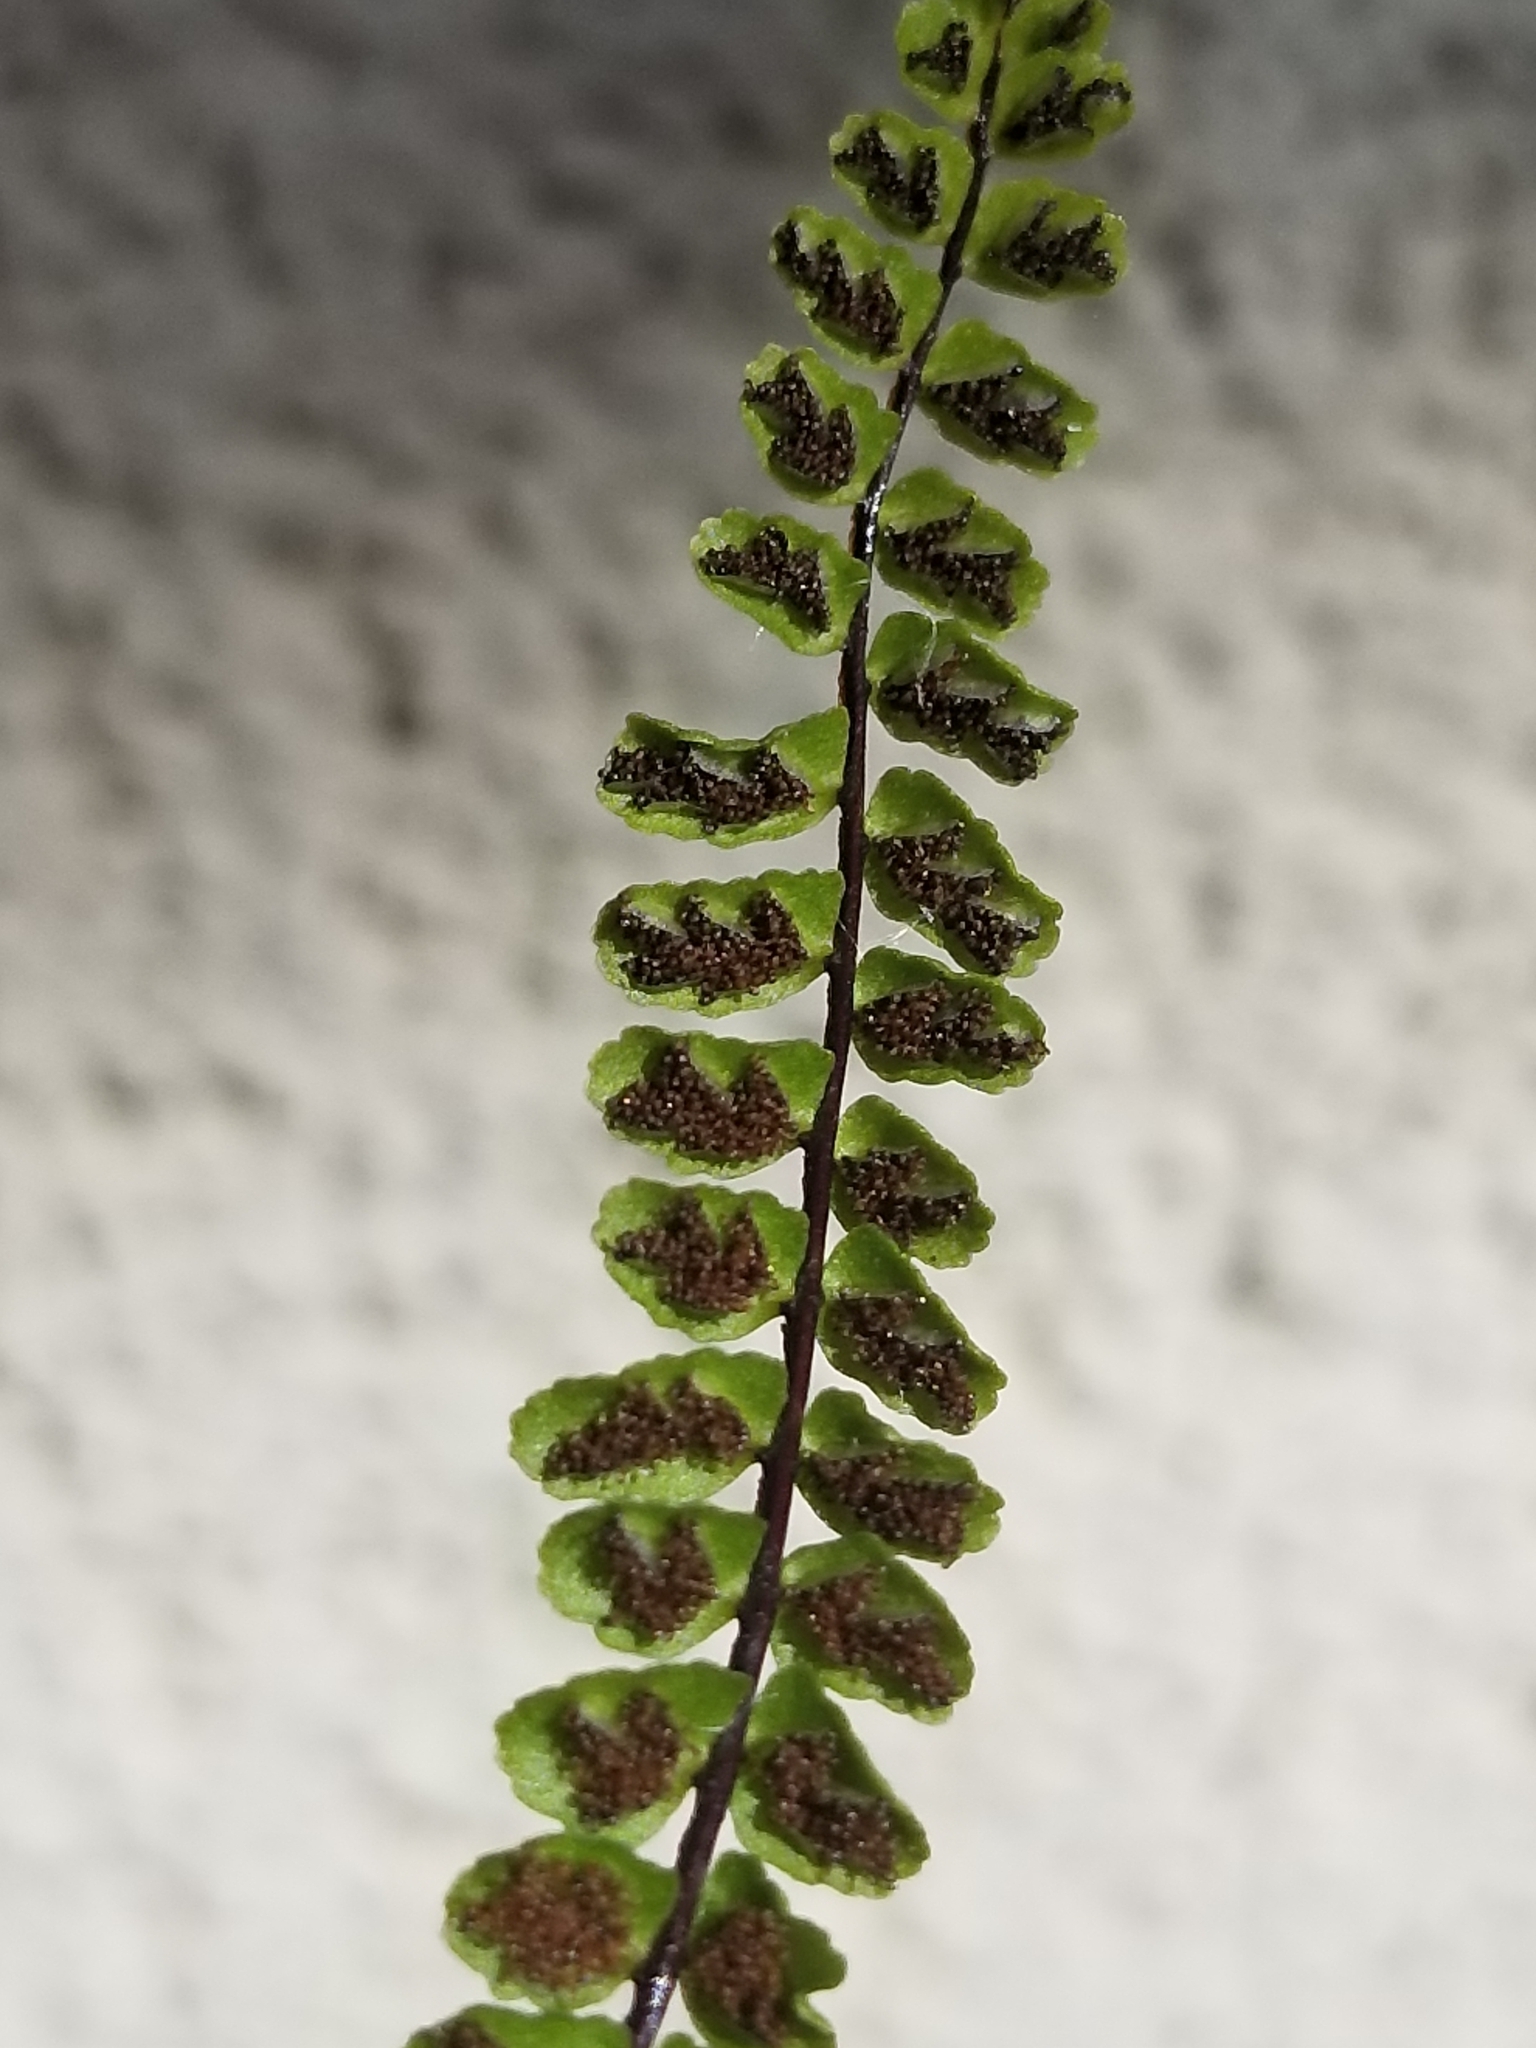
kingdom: Plantae
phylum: Tracheophyta
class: Polypodiopsida
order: Polypodiales
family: Aspleniaceae
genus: Asplenium
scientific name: Asplenium trichomanes
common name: Maidenhair spleenwort
